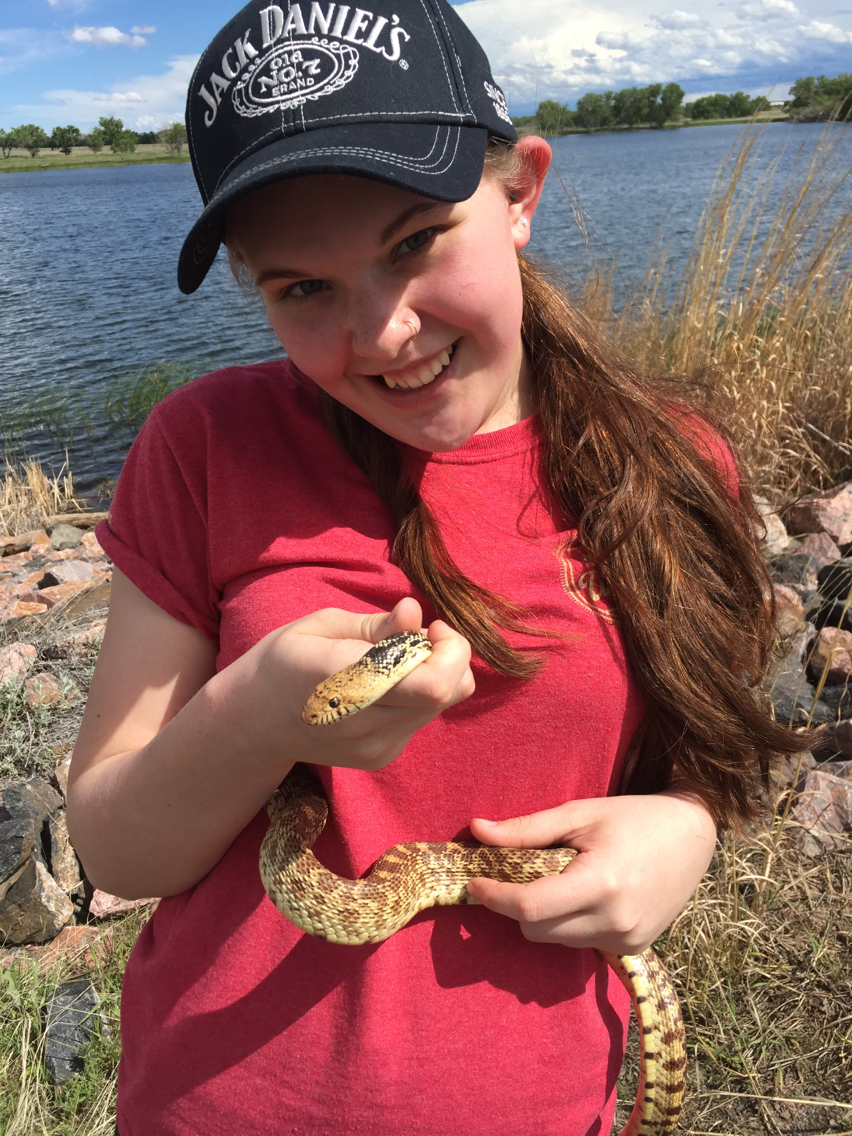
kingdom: Animalia
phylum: Chordata
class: Squamata
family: Colubridae
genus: Pituophis
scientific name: Pituophis catenifer
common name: Gopher snake
